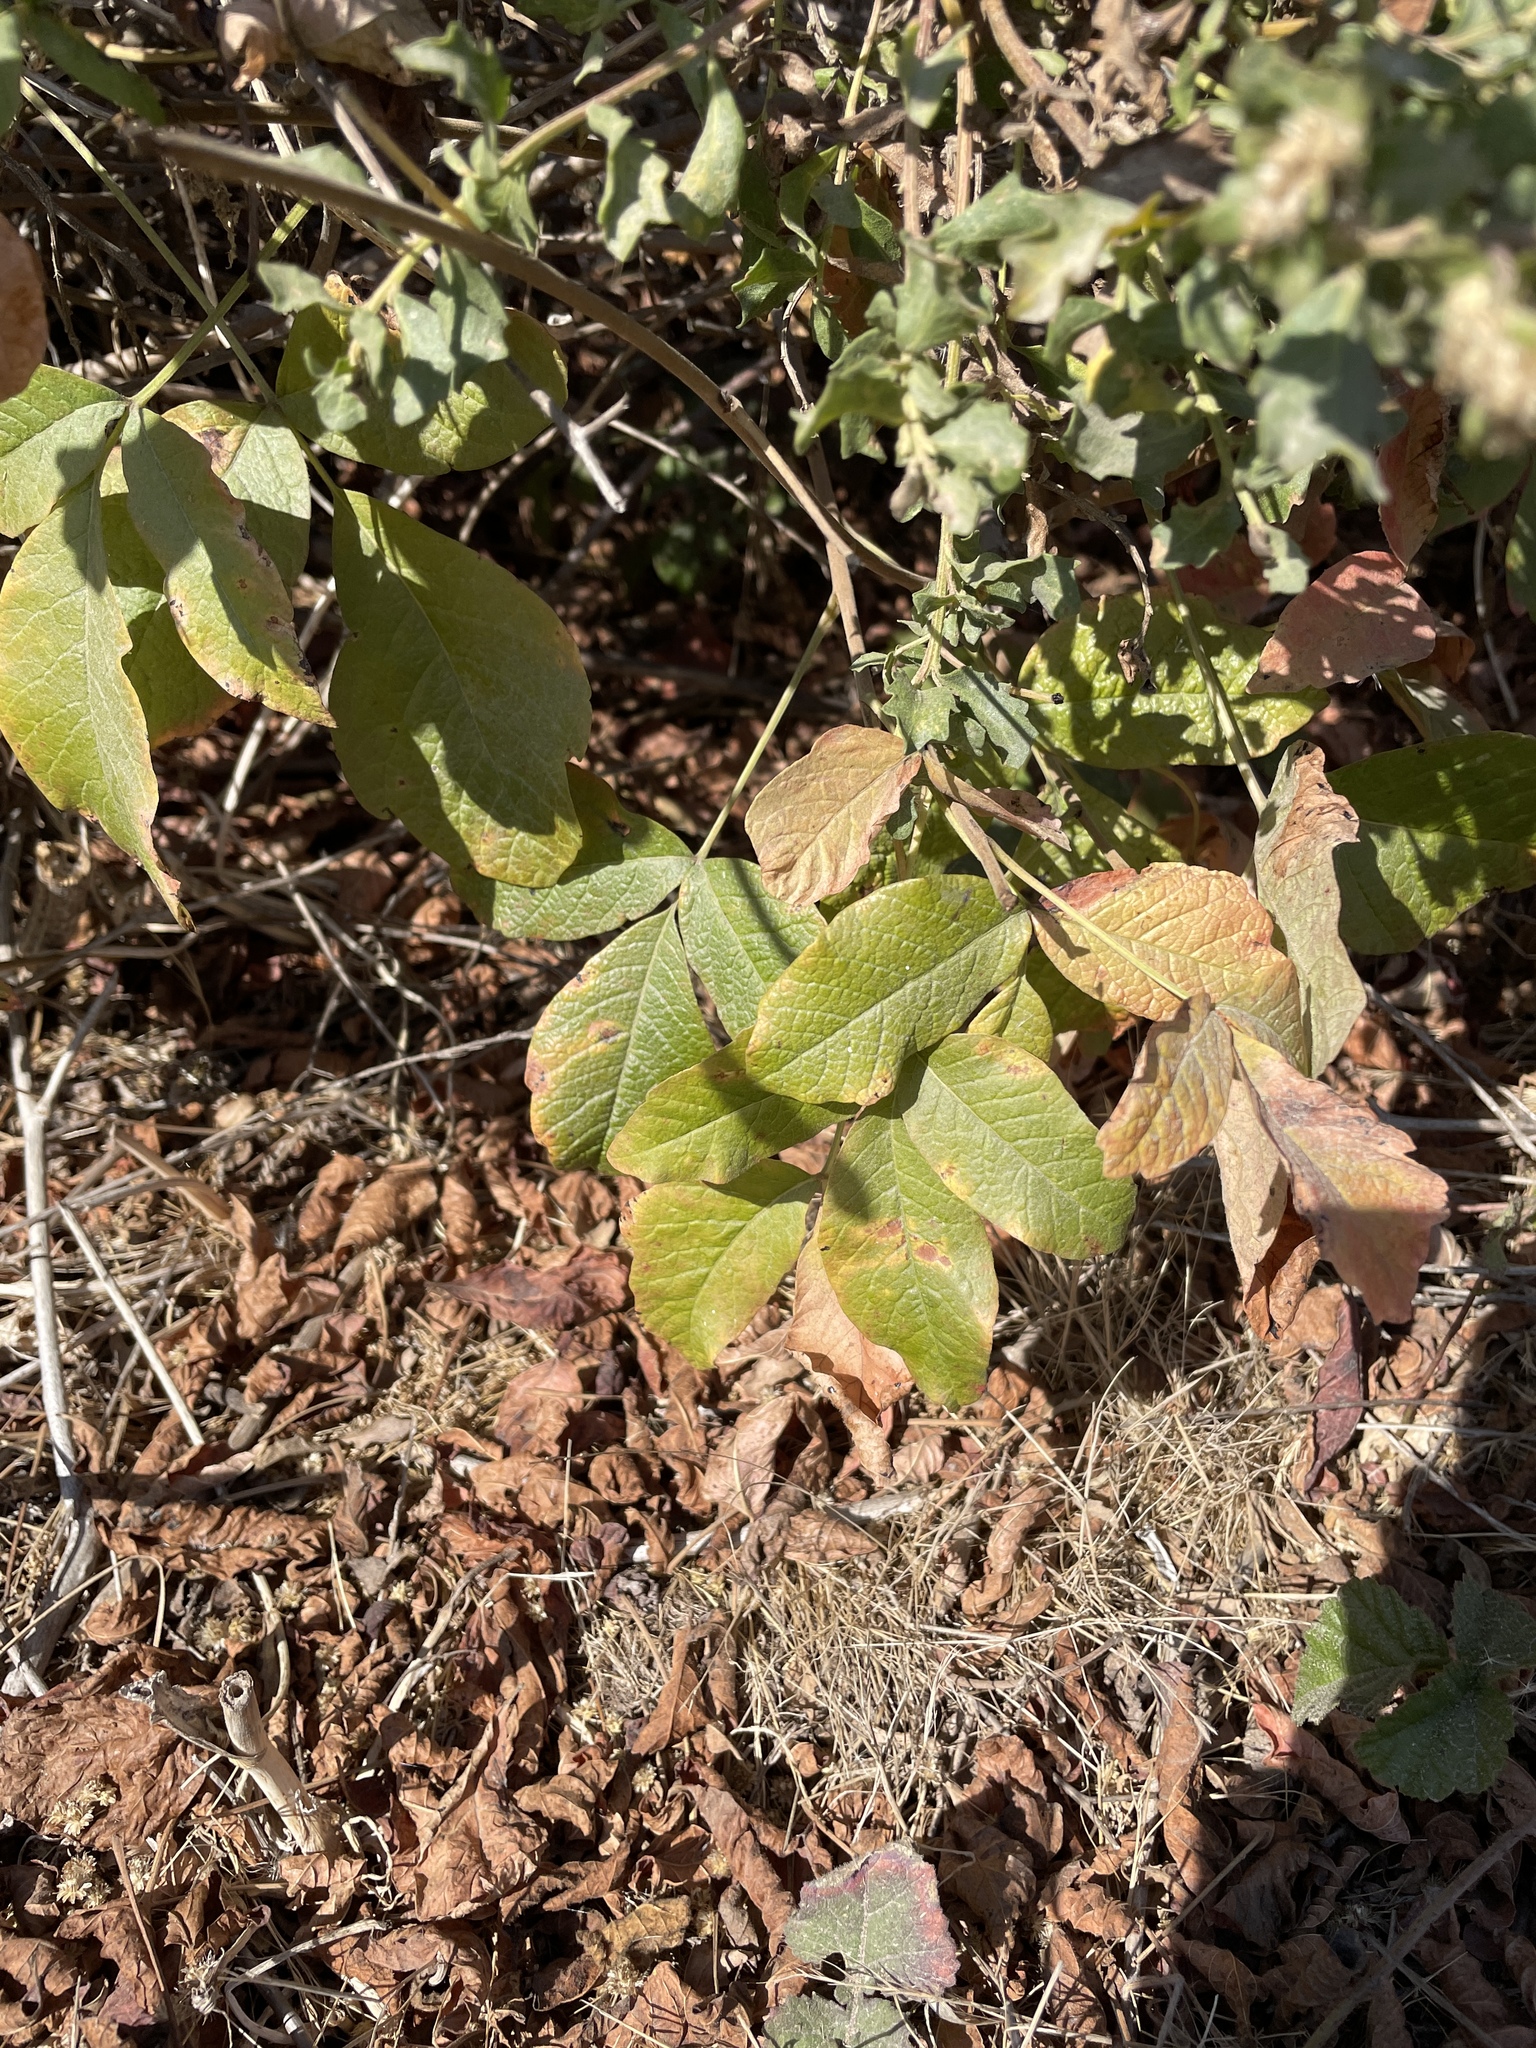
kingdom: Plantae
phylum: Tracheophyta
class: Magnoliopsida
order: Sapindales
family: Anacardiaceae
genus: Toxicodendron
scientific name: Toxicodendron diversilobum
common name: Pacific poison-oak
